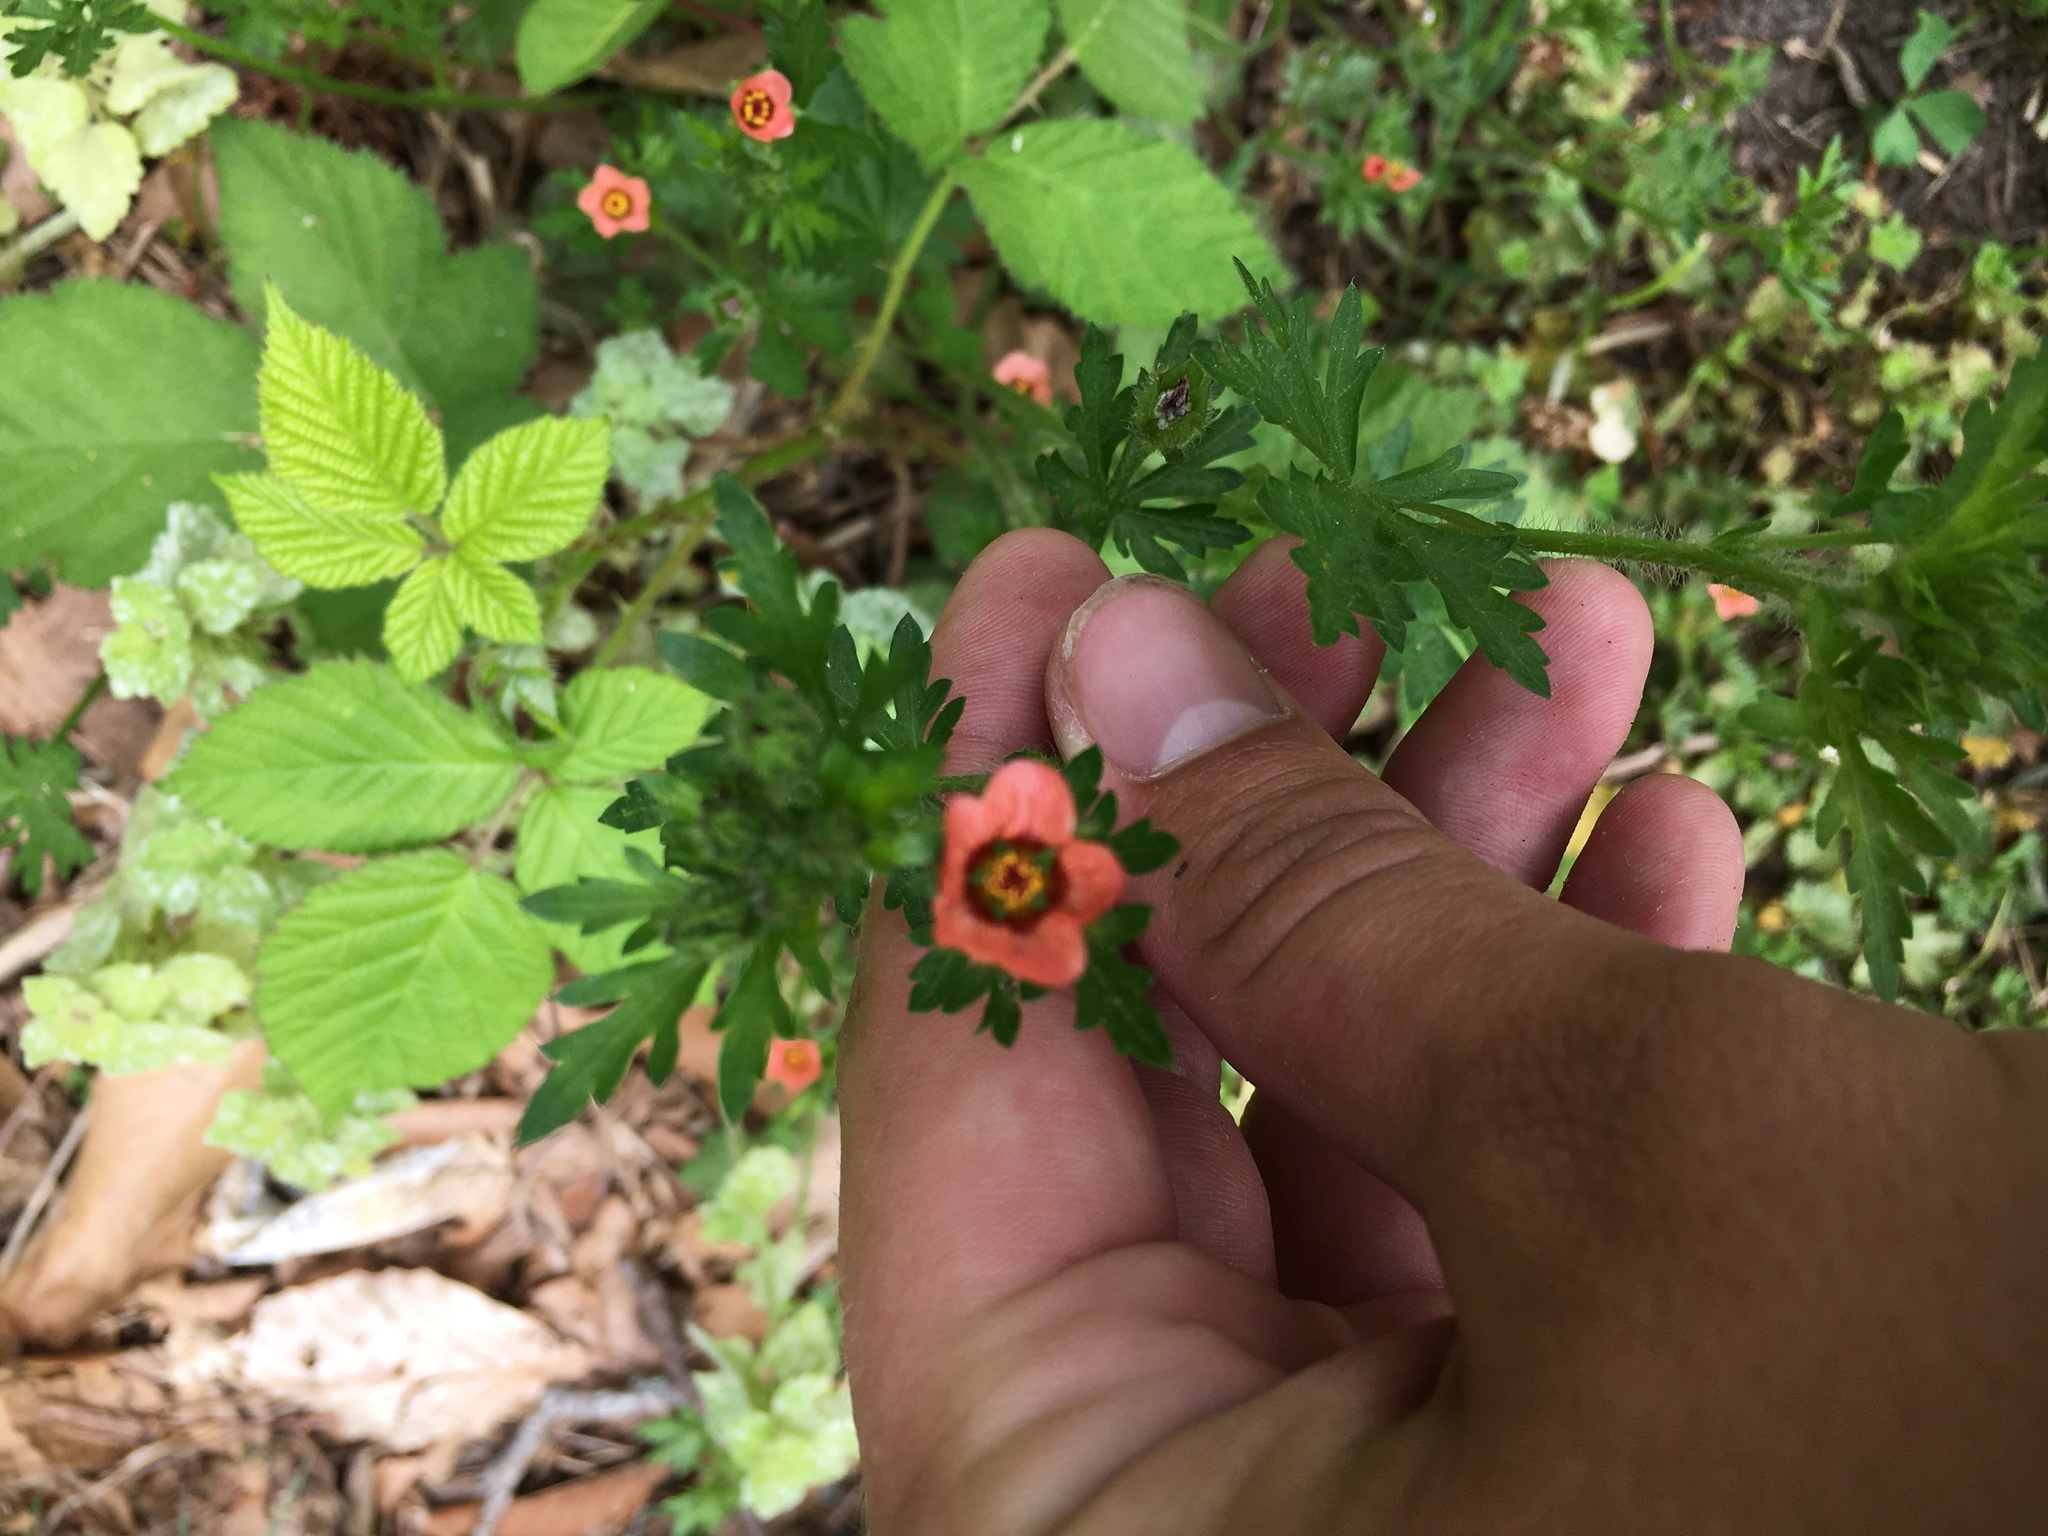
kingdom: Plantae
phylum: Tracheophyta
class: Magnoliopsida
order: Malvales
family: Malvaceae
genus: Modiola
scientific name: Modiola caroliniana
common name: Carolina bristlemallow
